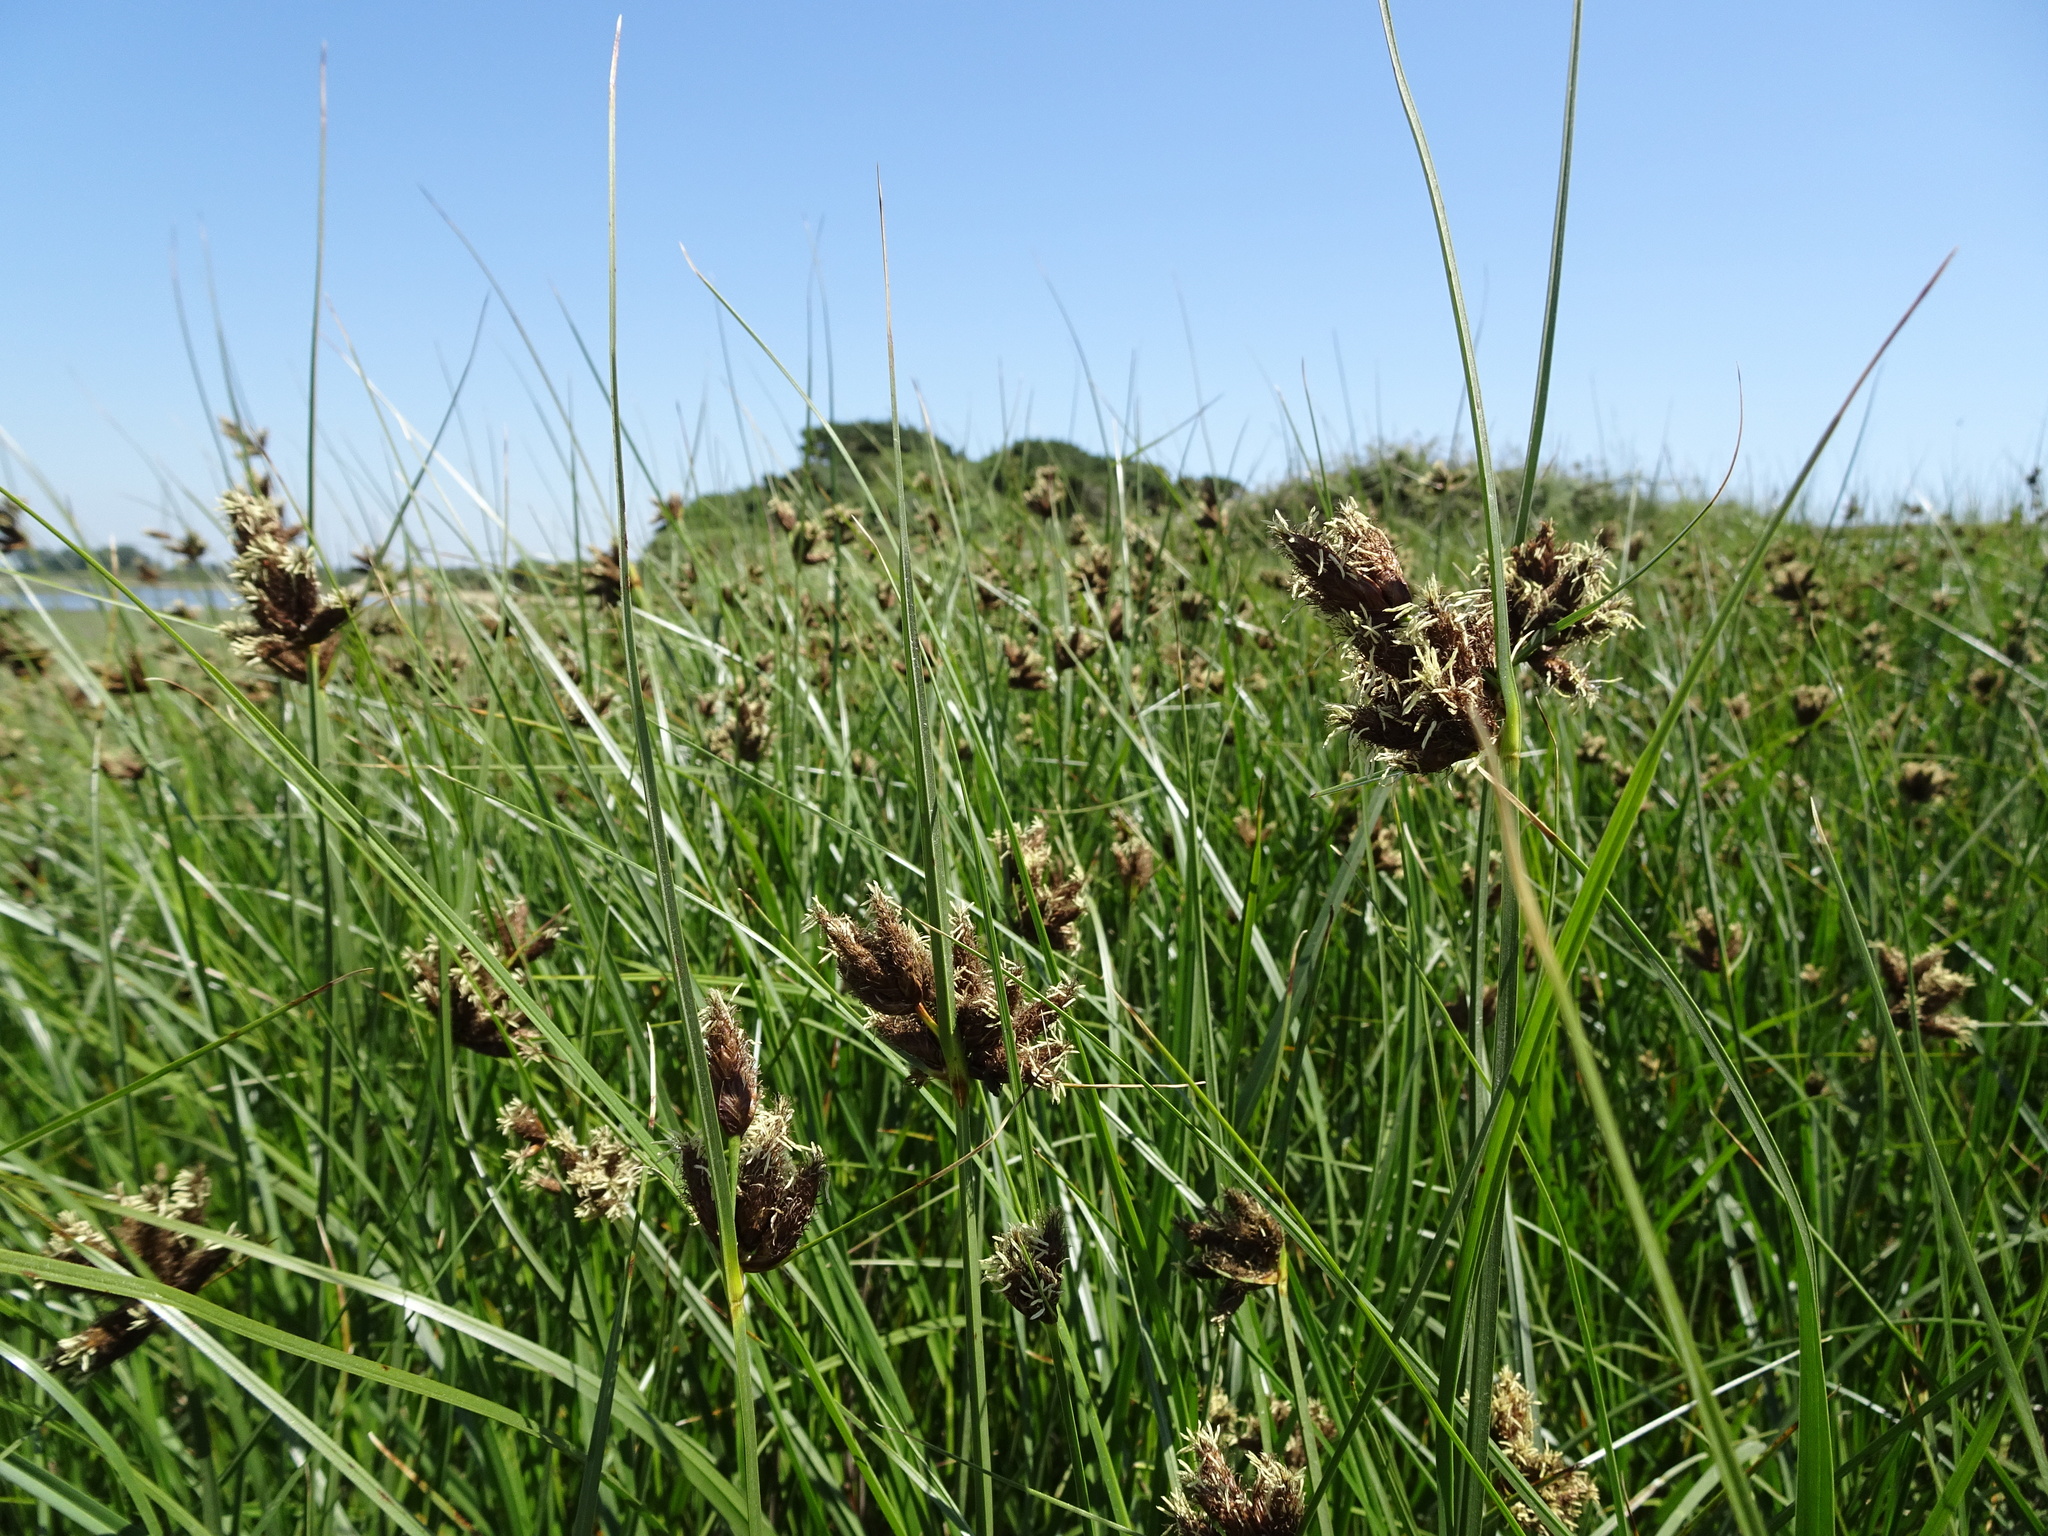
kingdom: Plantae
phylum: Tracheophyta
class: Liliopsida
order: Poales
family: Cyperaceae
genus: Bolboschoenus
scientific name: Bolboschoenus maritimus
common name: Sea club-rush
